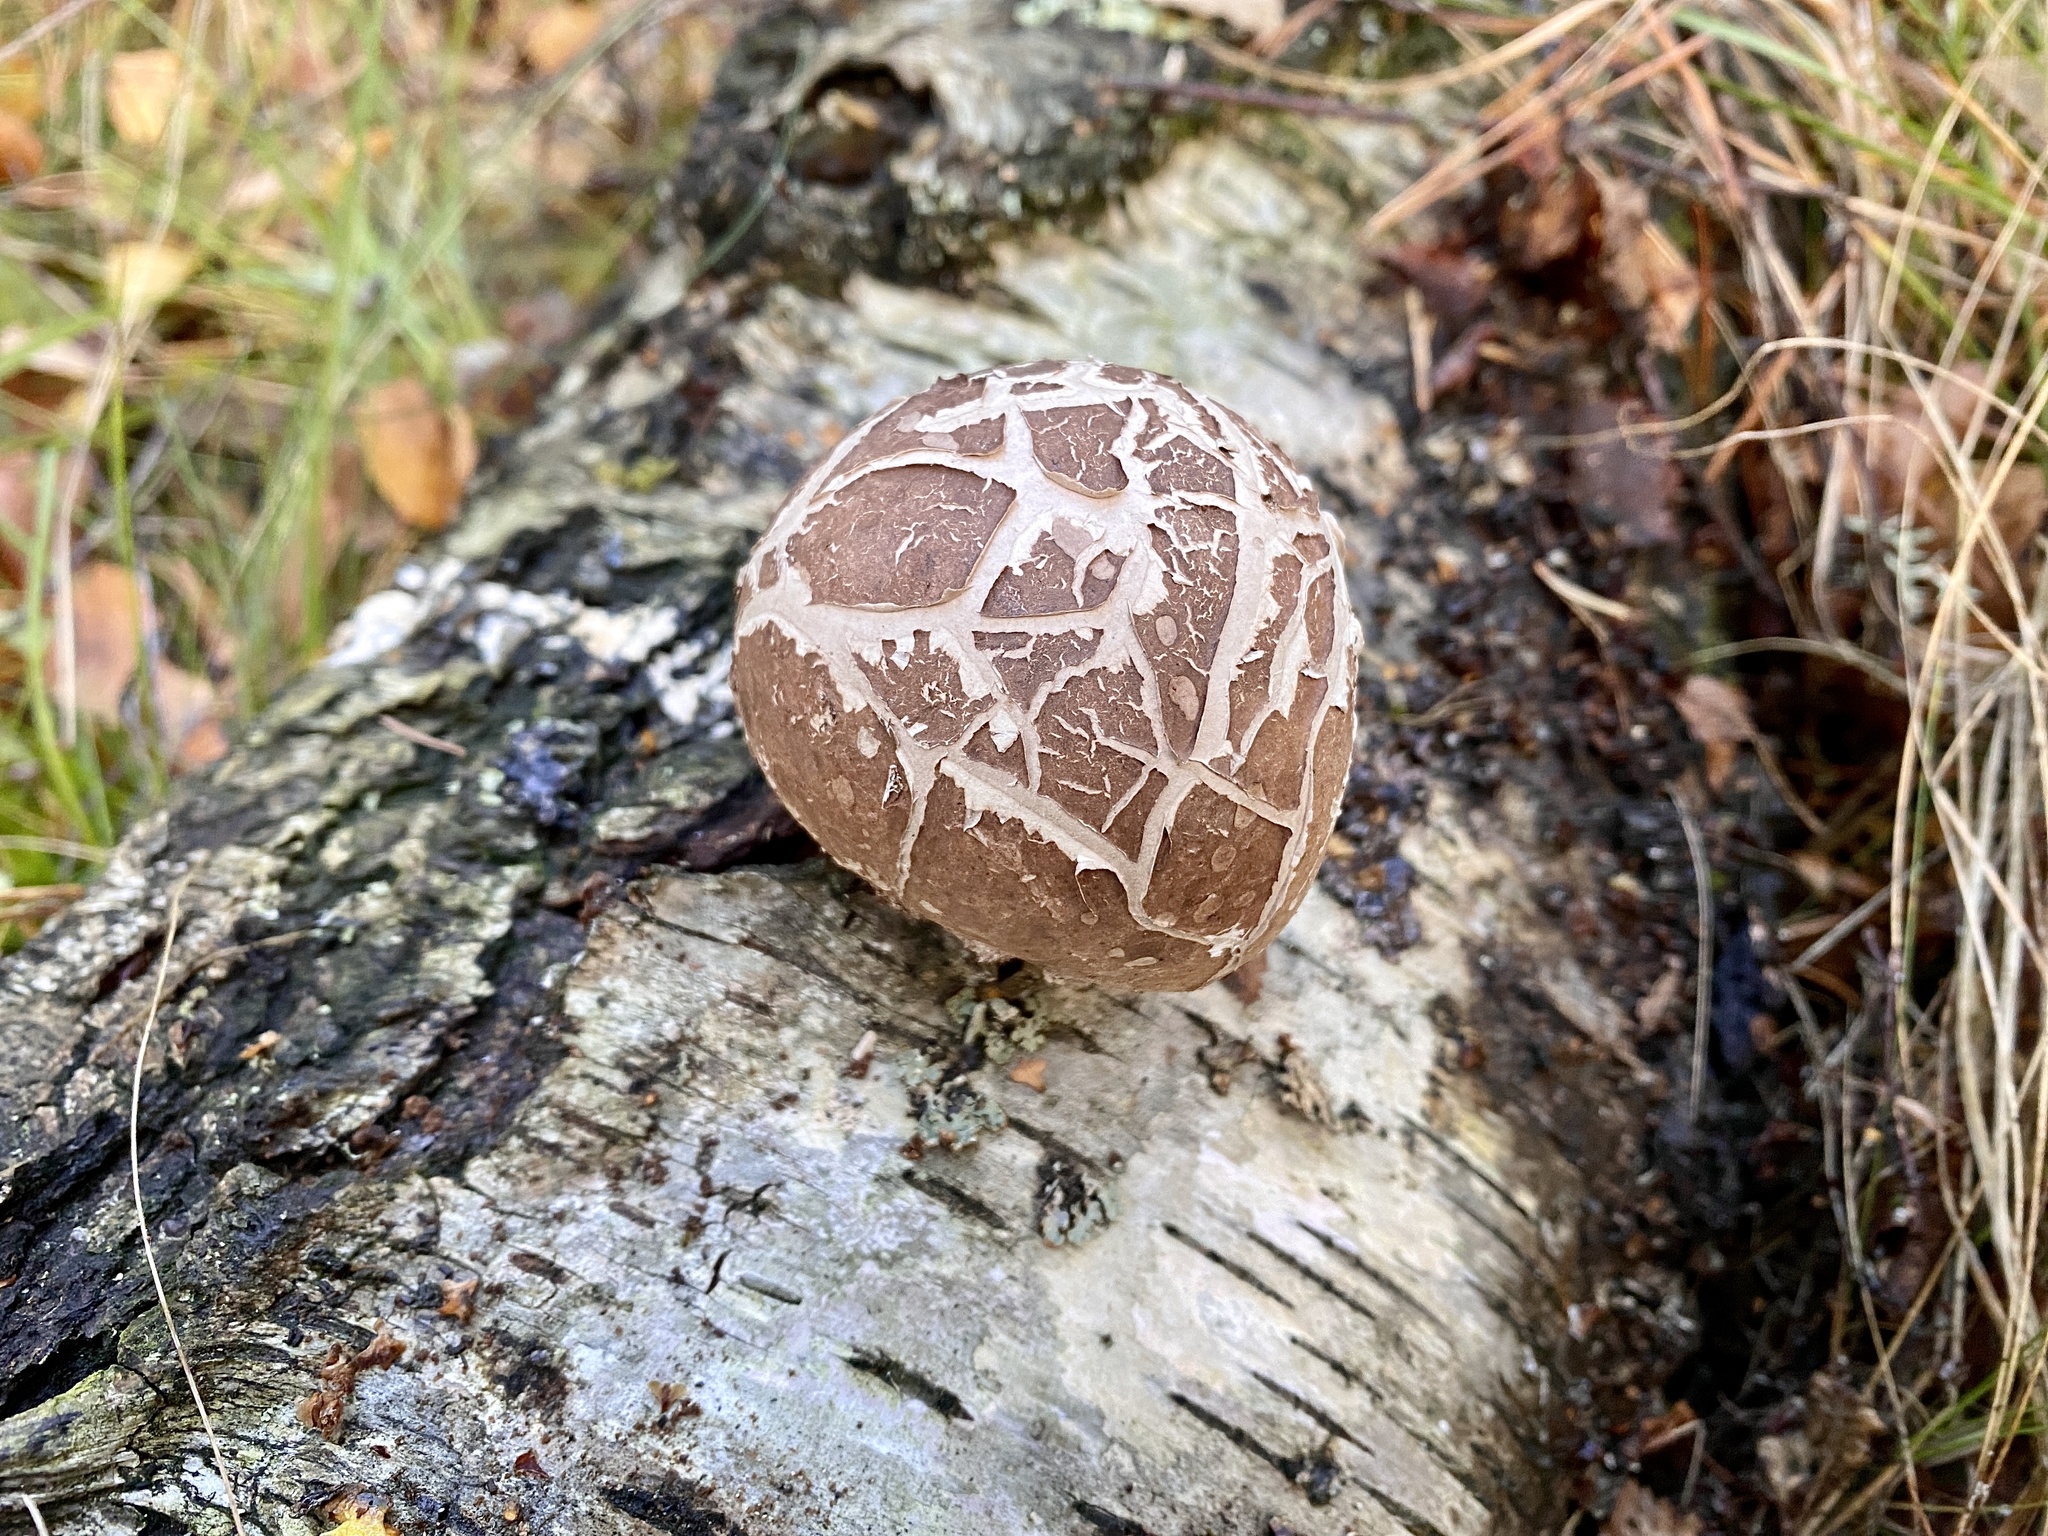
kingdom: Fungi
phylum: Basidiomycota
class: Agaricomycetes
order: Polyporales
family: Fomitopsidaceae
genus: Fomitopsis
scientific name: Fomitopsis betulina
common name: Birch polypore
